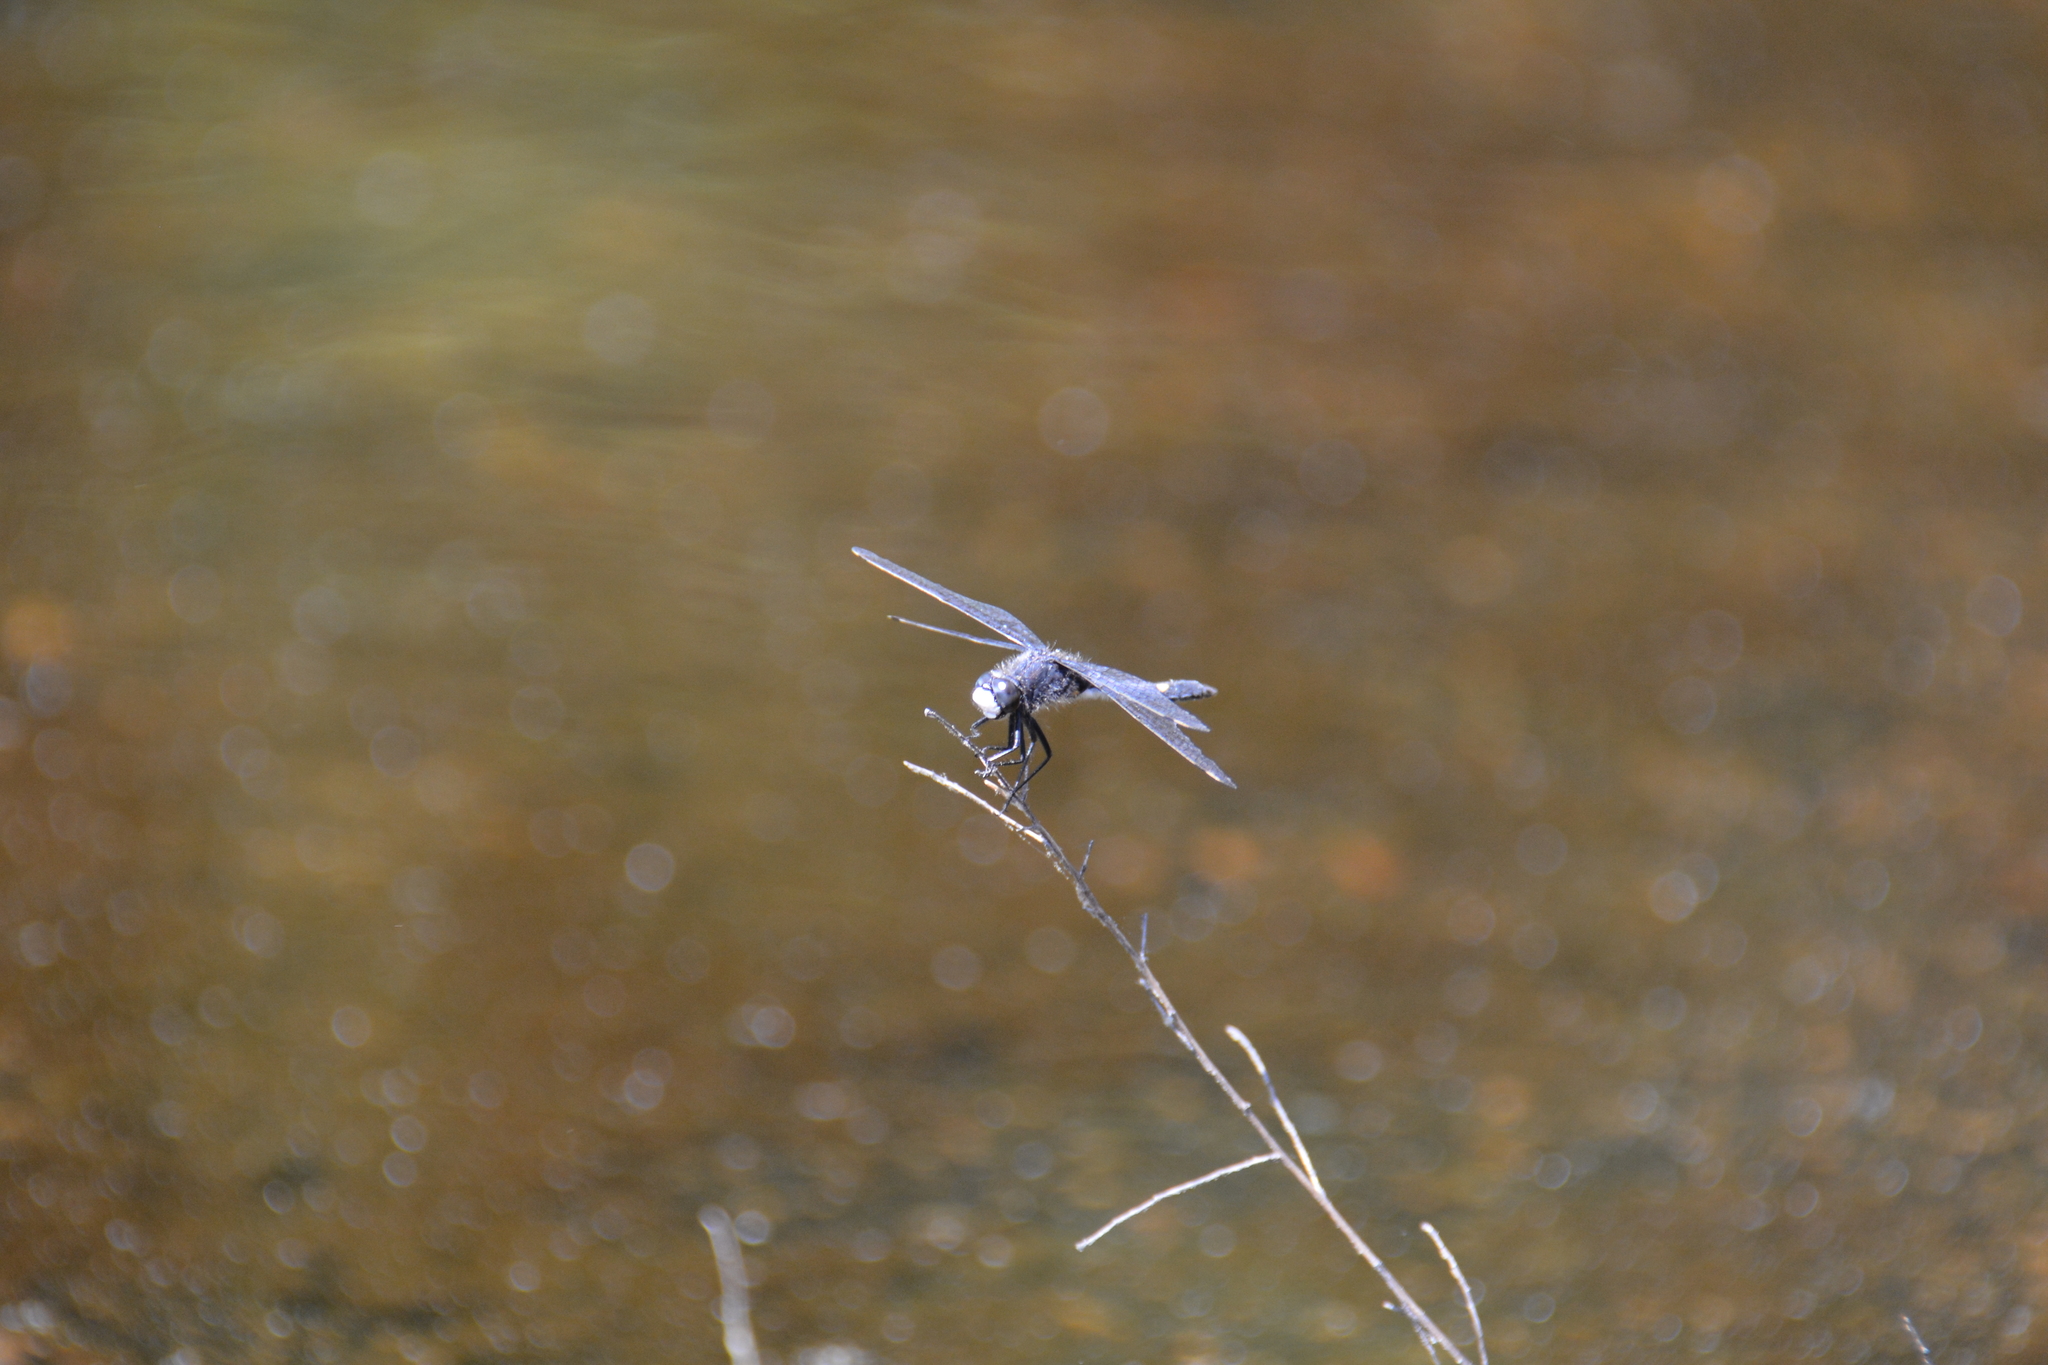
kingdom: Animalia
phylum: Arthropoda
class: Insecta
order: Odonata
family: Libellulidae
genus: Leucorrhinia
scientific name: Leucorrhinia intacta
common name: Dot-tailed whiteface
